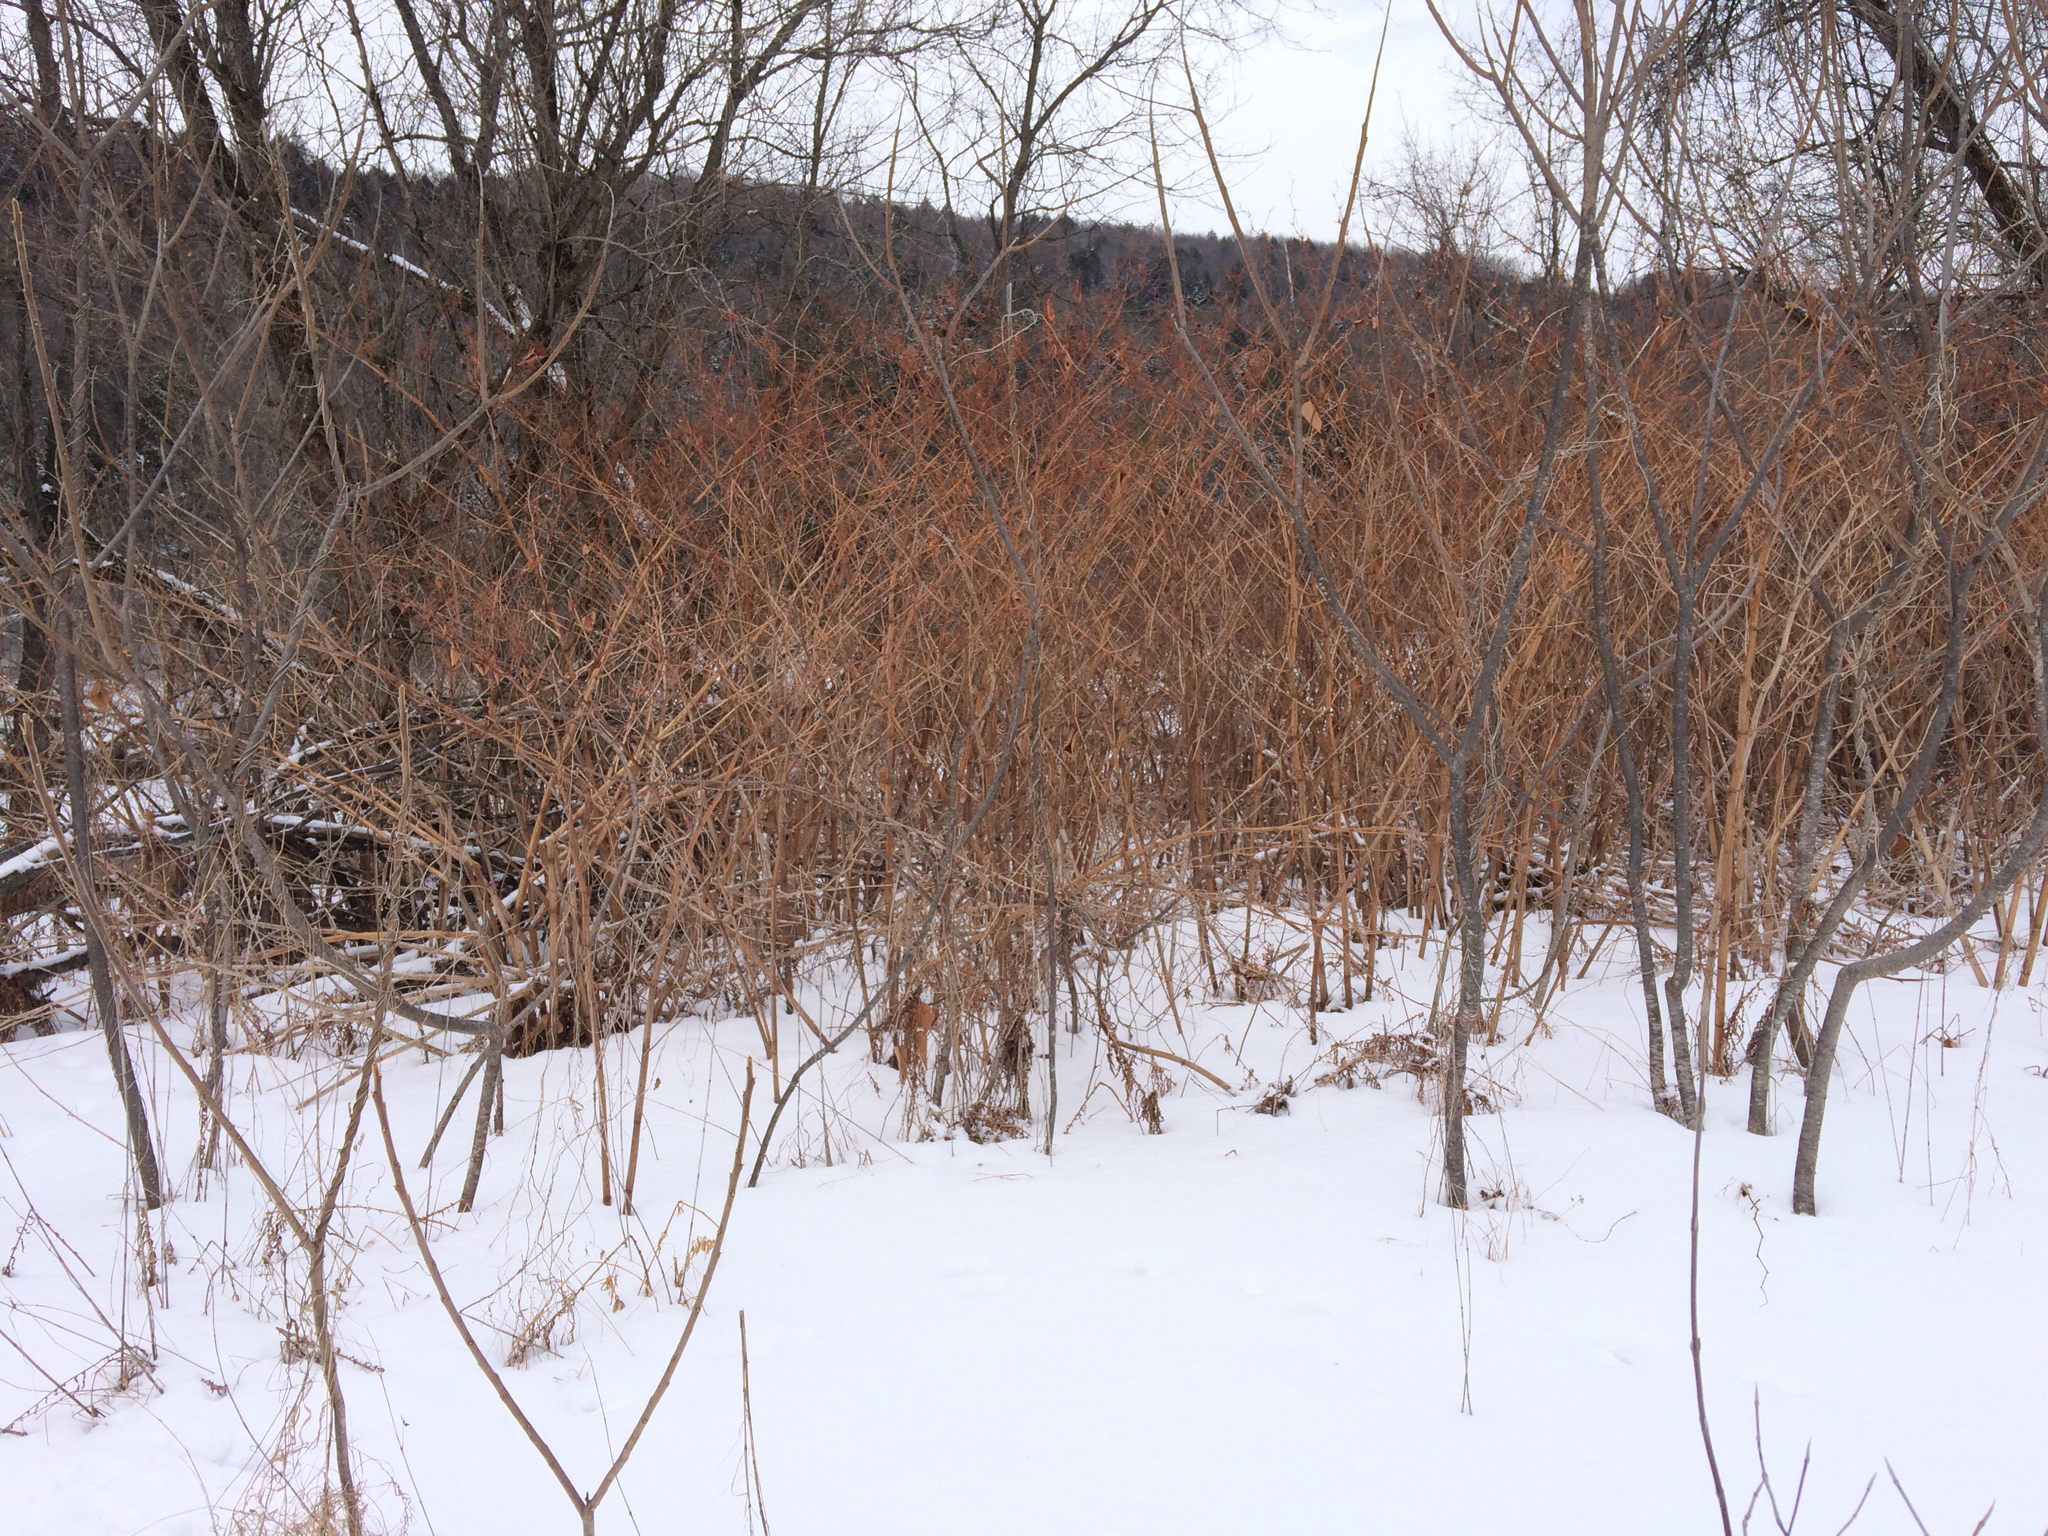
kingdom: Plantae
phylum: Tracheophyta
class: Magnoliopsida
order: Caryophyllales
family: Polygonaceae
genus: Reynoutria
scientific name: Reynoutria japonica
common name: Japanese knotweed
